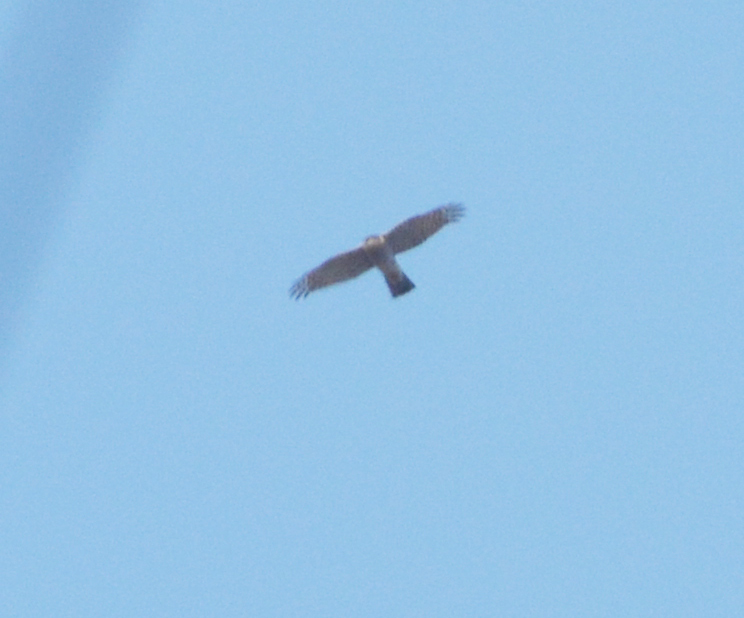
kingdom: Animalia
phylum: Chordata
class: Aves
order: Accipitriformes
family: Accipitridae
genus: Accipiter
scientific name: Accipiter nisus
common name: Eurasian sparrowhawk
